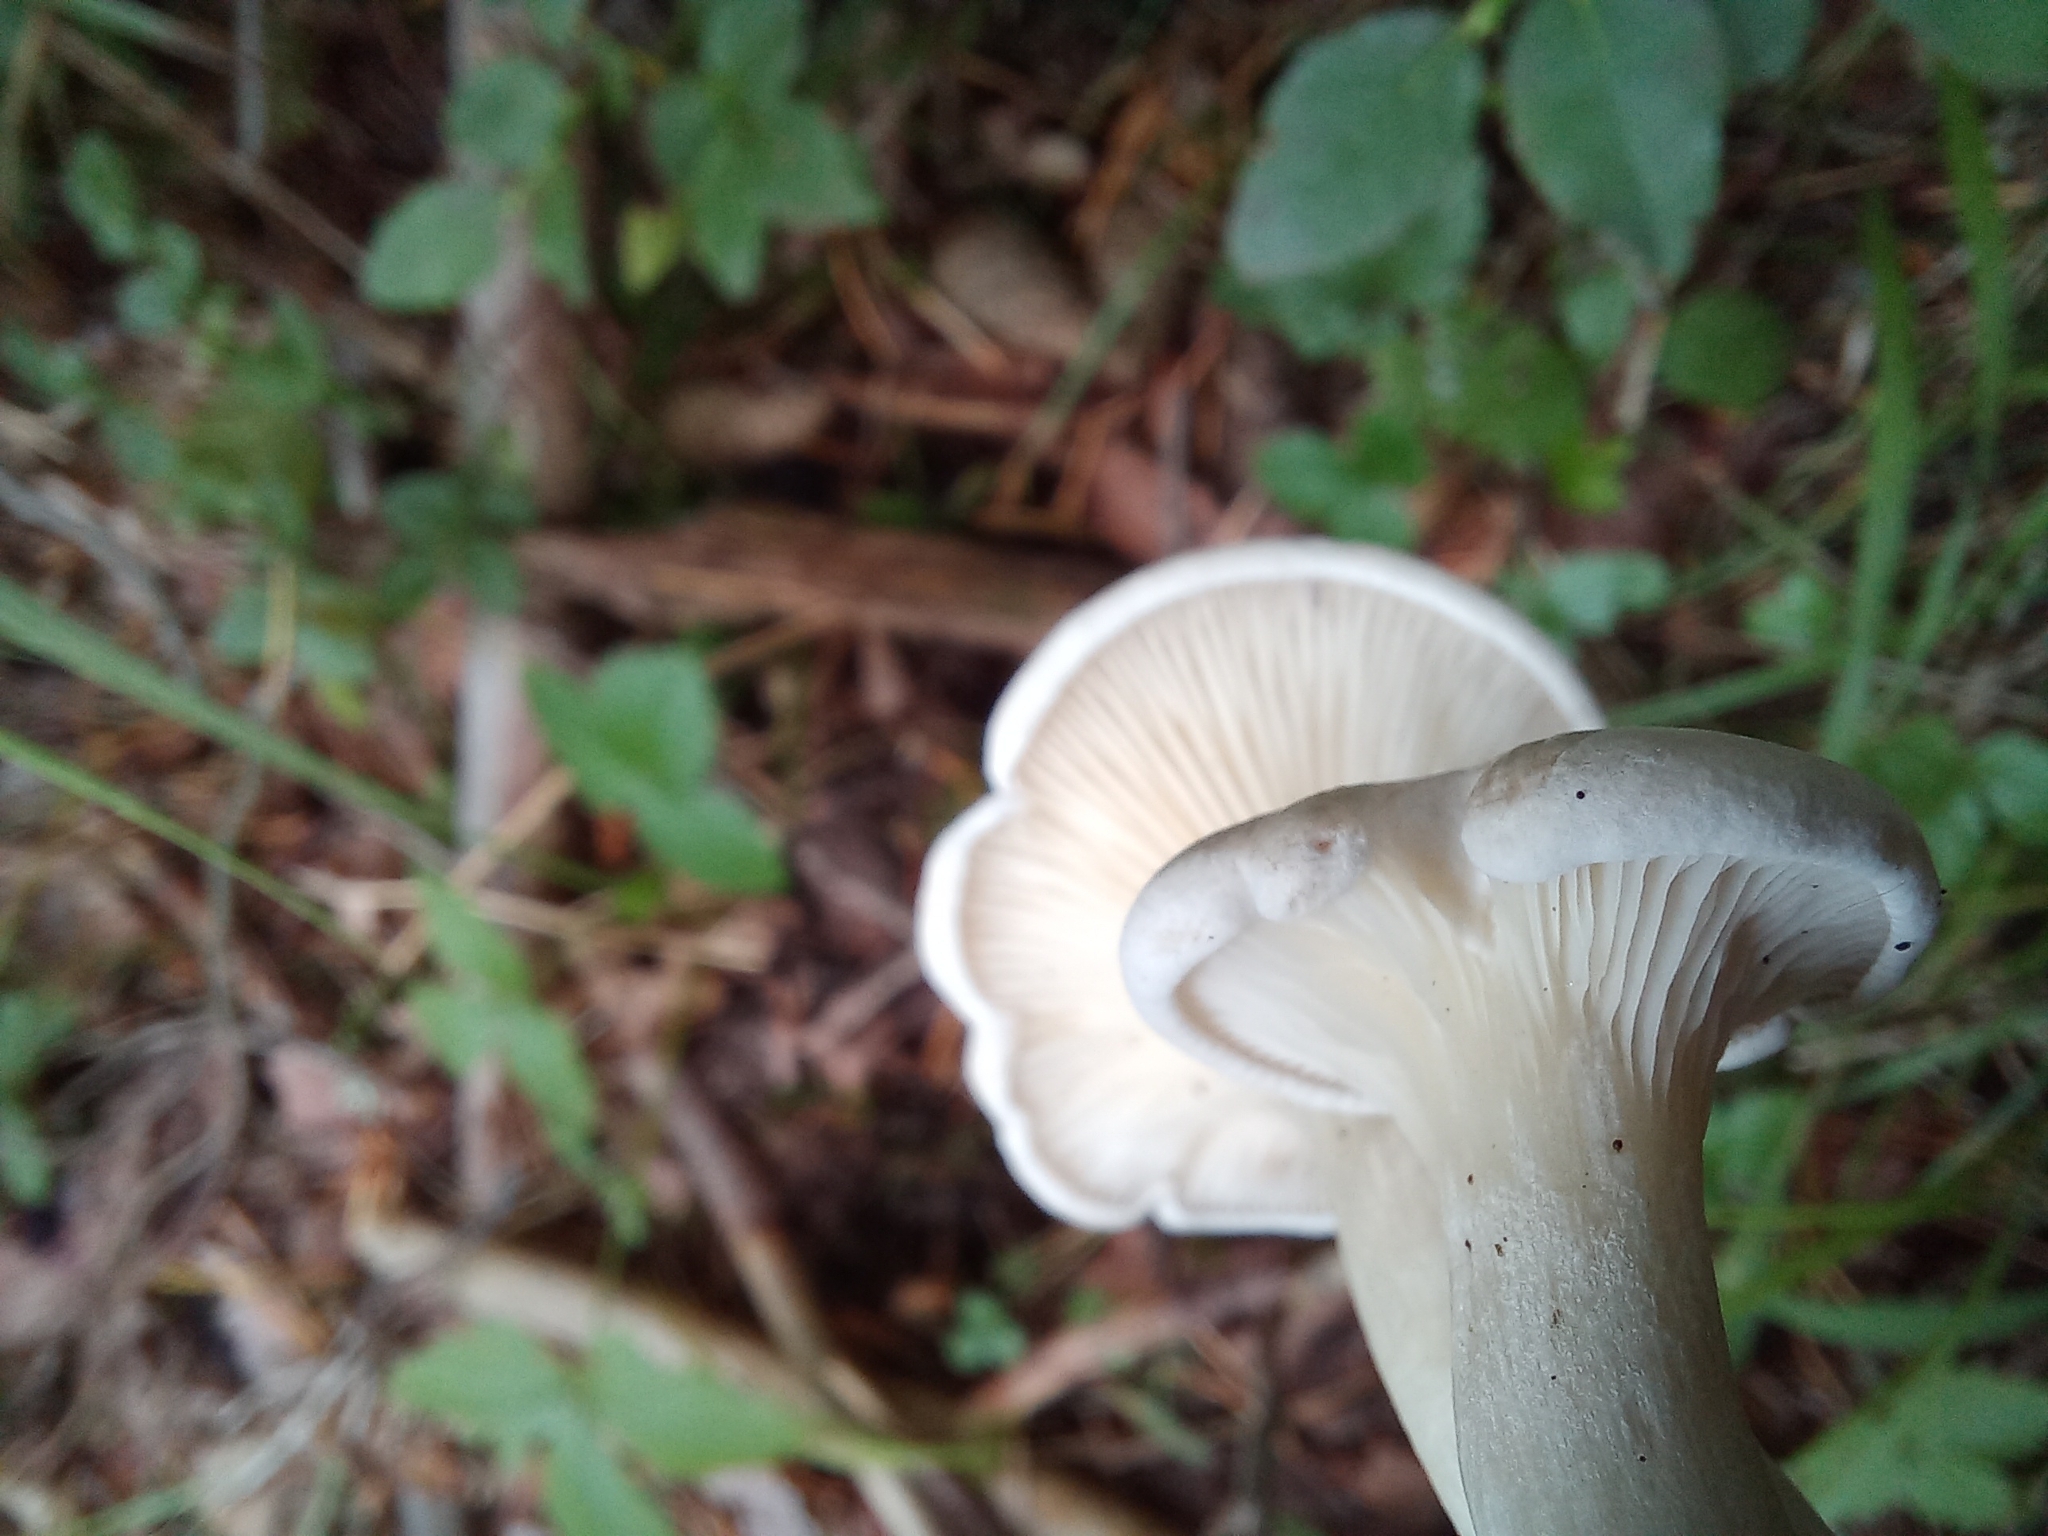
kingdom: Fungi
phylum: Basidiomycota
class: Agaricomycetes
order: Agaricales
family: Entolomataceae
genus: Clitopilus
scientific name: Clitopilus prunulus
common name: The miller
